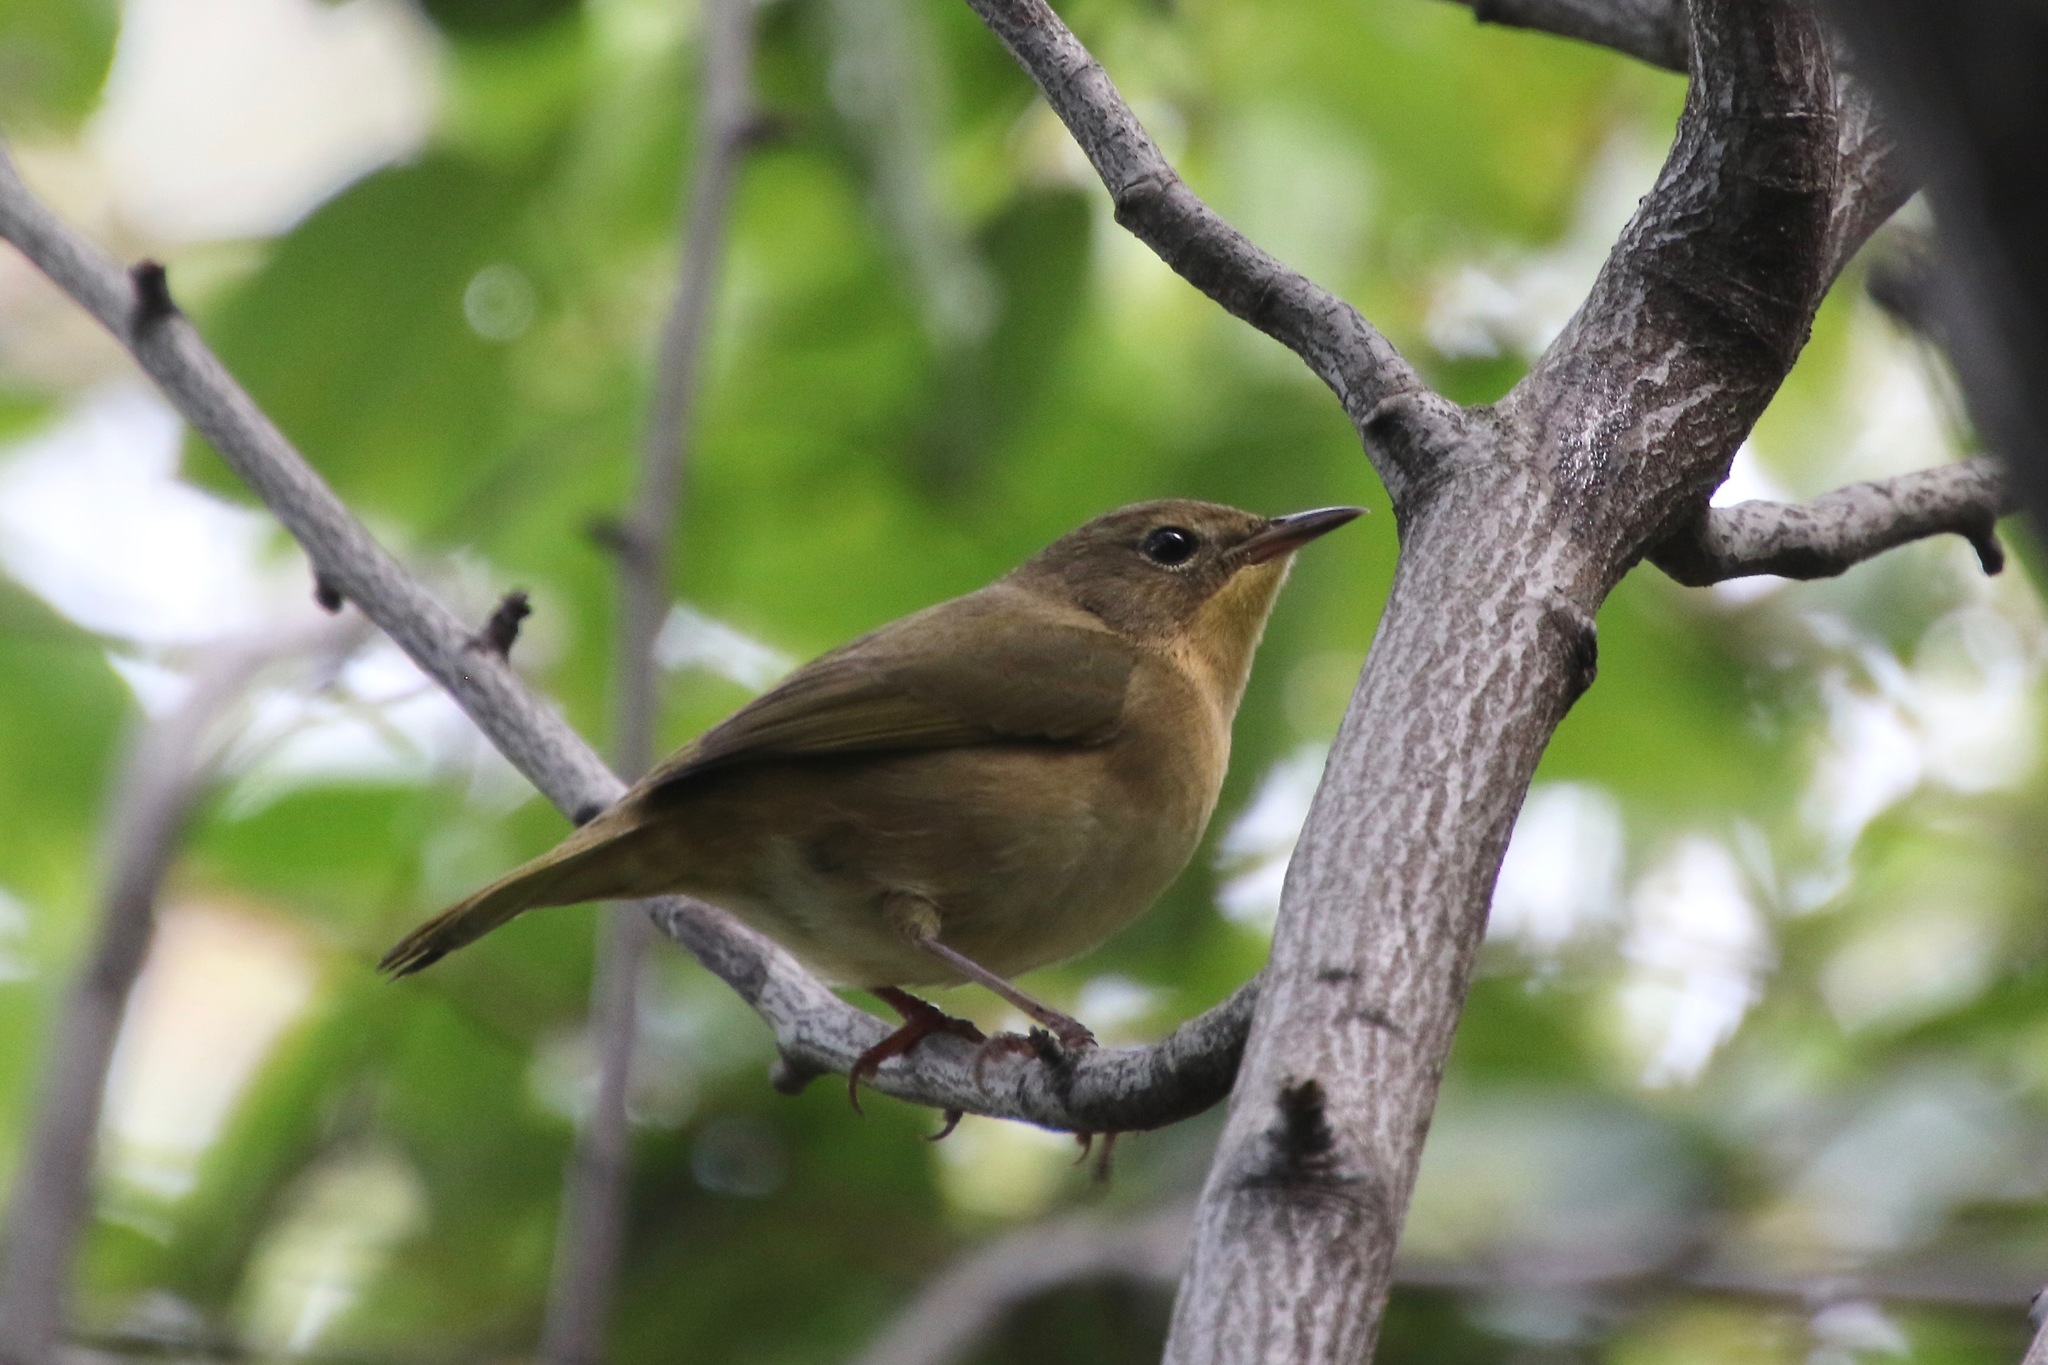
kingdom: Animalia
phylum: Chordata
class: Aves
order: Passeriformes
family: Parulidae
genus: Geothlypis
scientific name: Geothlypis trichas
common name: Common yellowthroat
